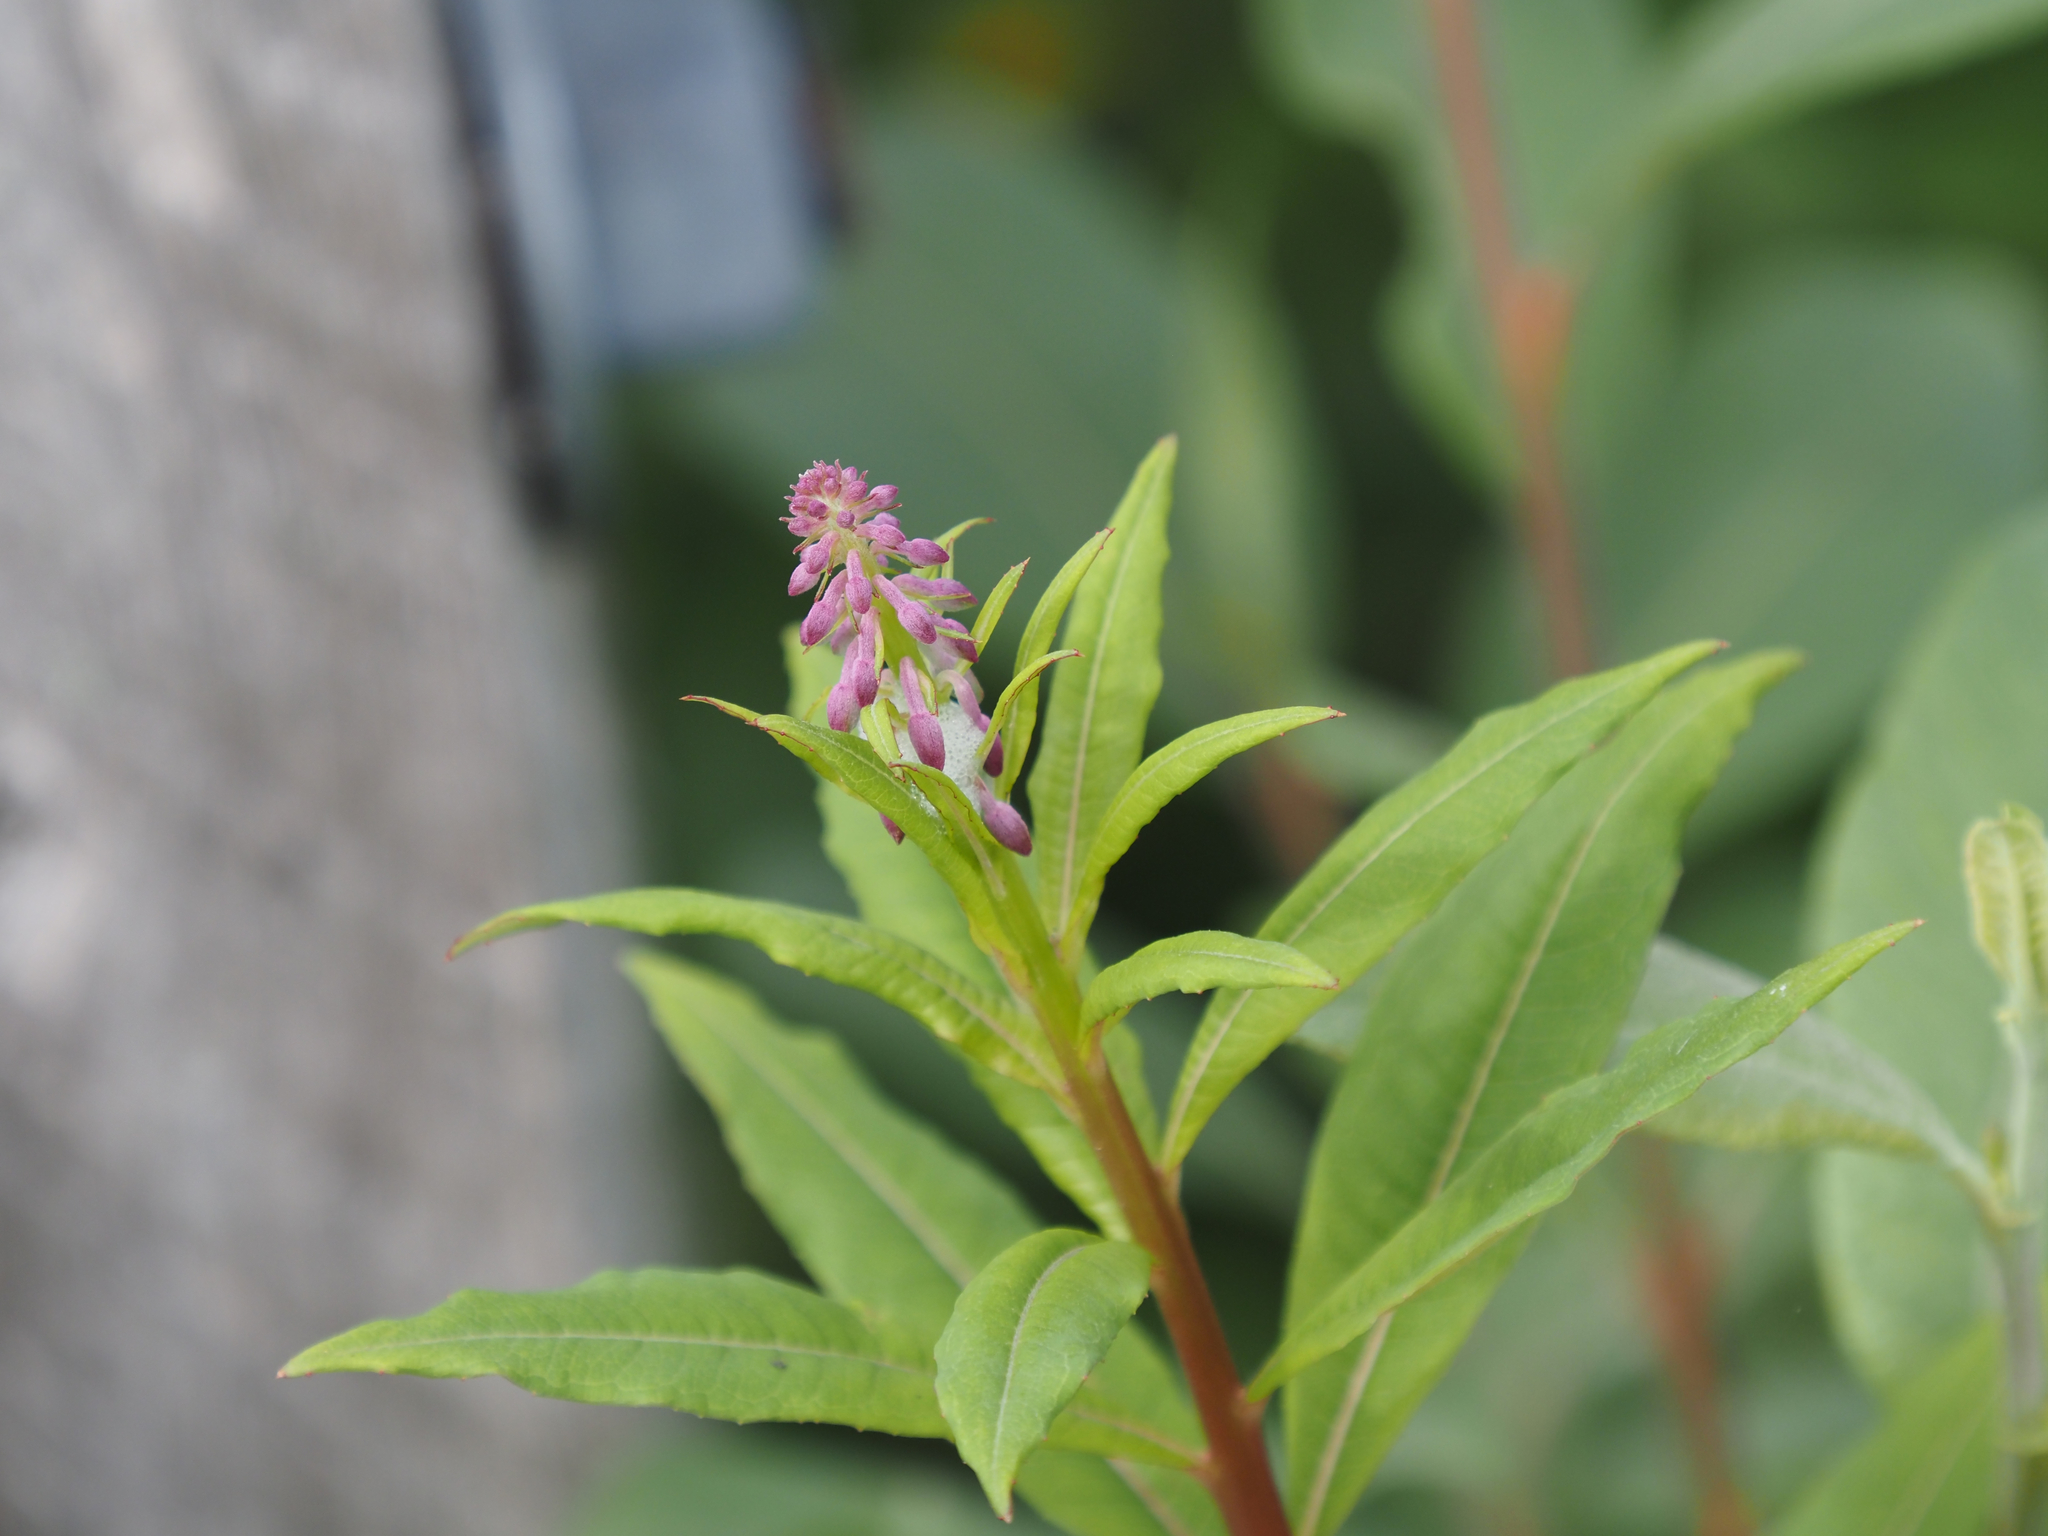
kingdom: Plantae
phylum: Tracheophyta
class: Magnoliopsida
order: Myrtales
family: Onagraceae
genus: Chamaenerion
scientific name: Chamaenerion angustifolium
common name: Fireweed
